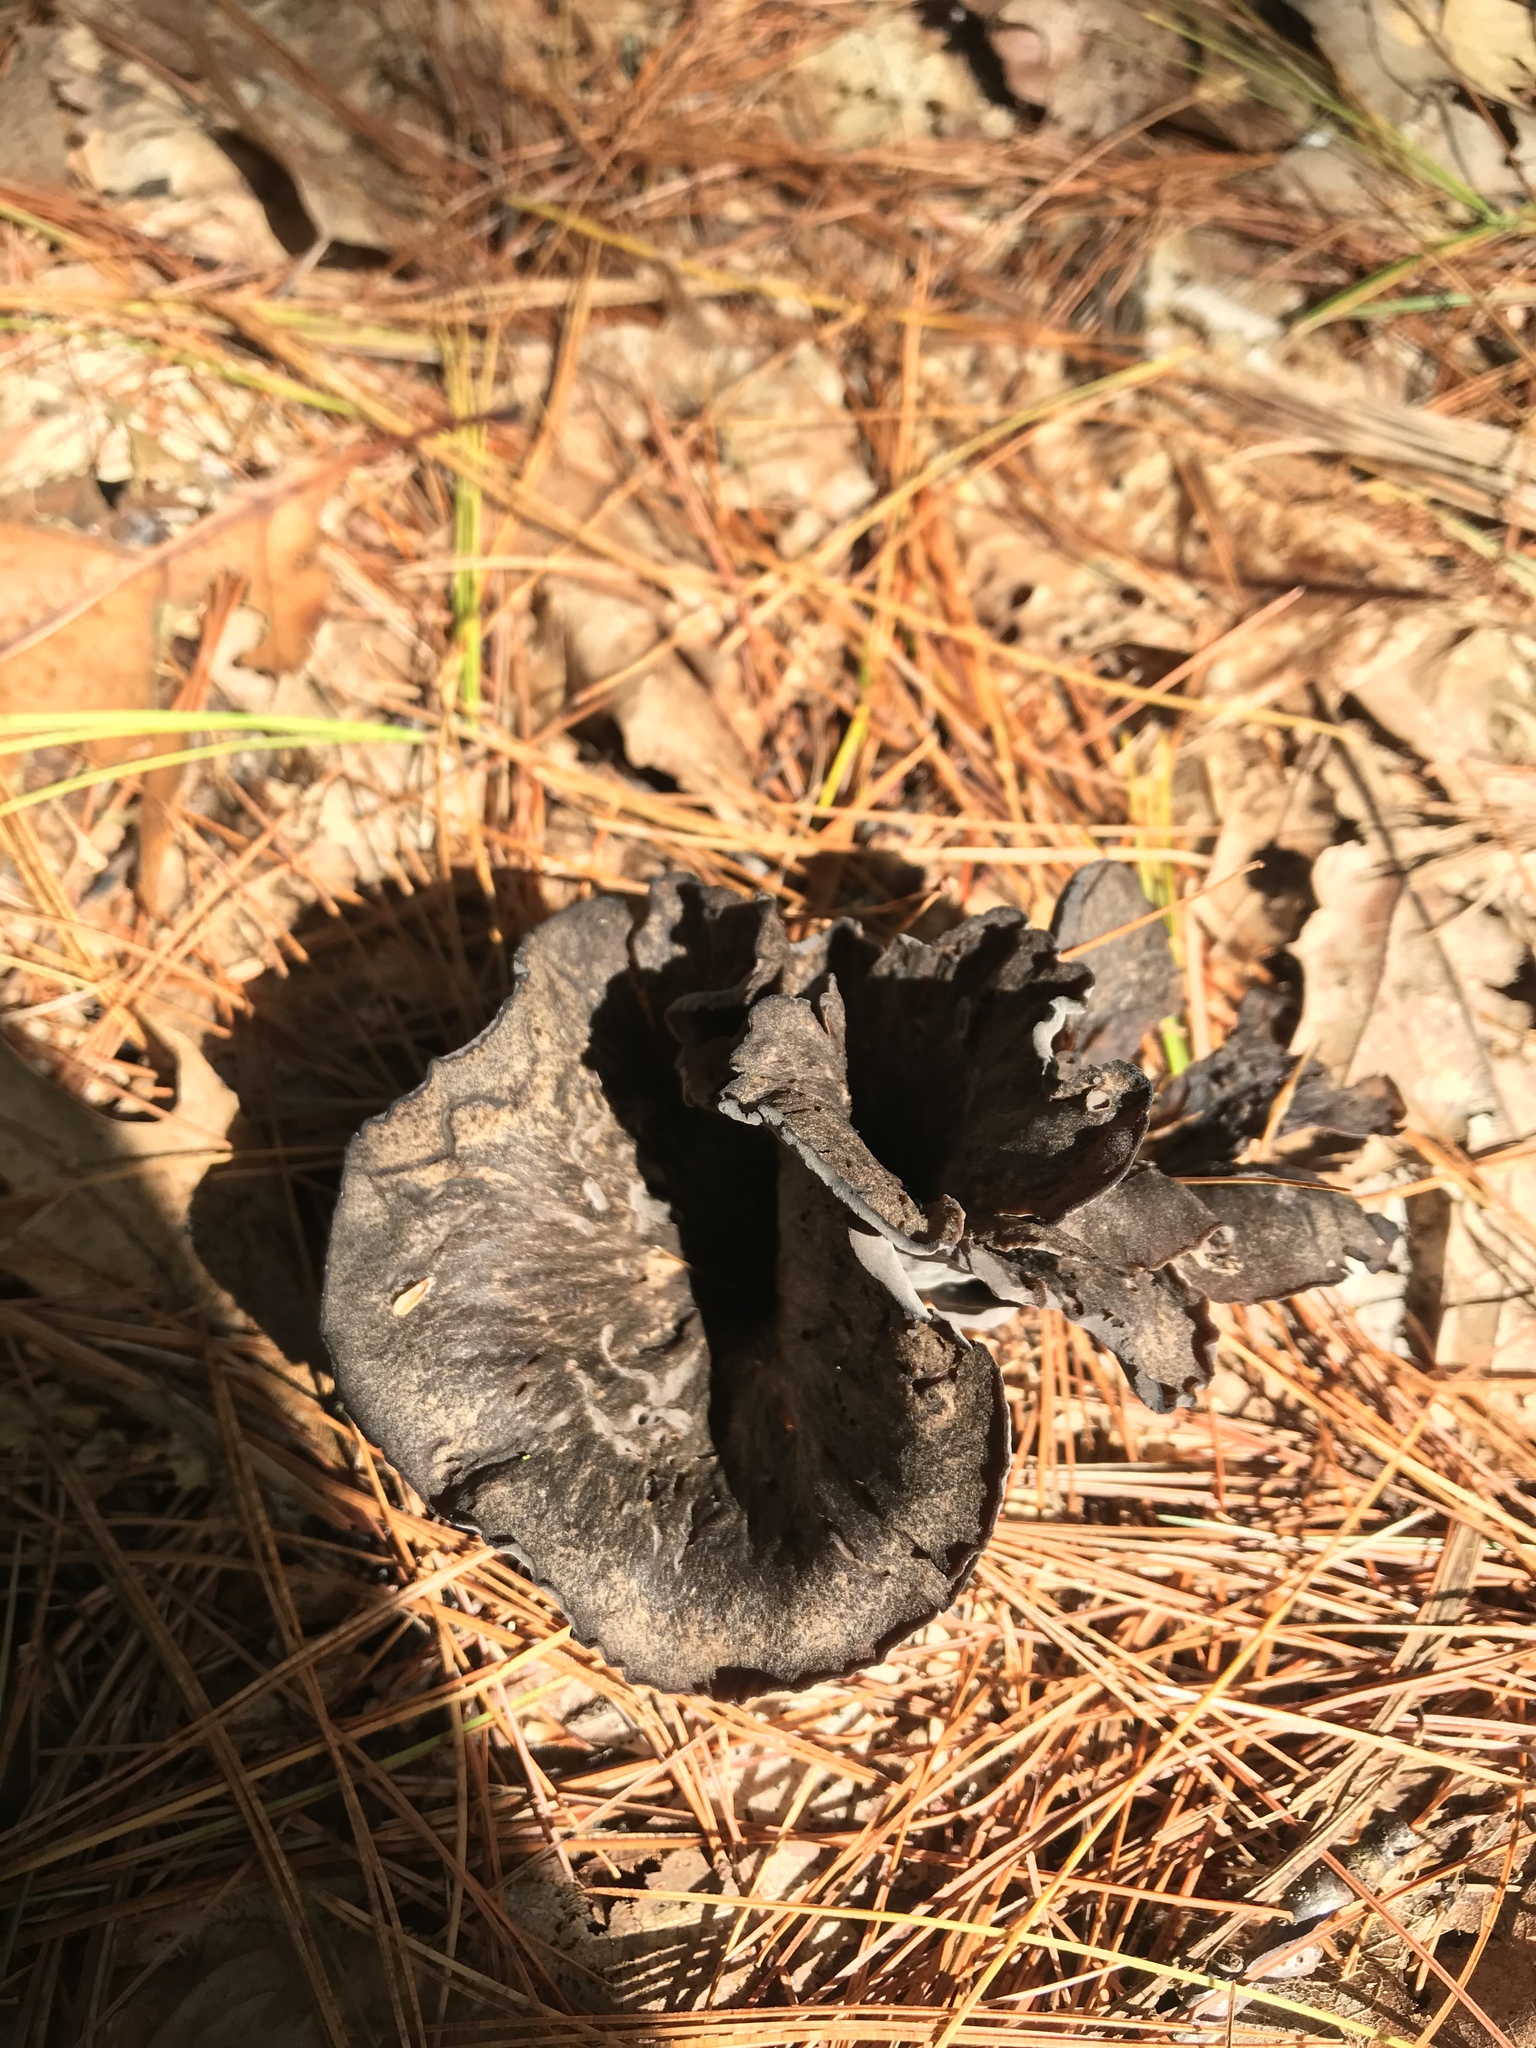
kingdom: Fungi
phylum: Basidiomycota
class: Agaricomycetes
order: Cantharellales
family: Hydnaceae
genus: Craterellus
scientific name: Craterellus cornucopioides
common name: Horn of plenty
